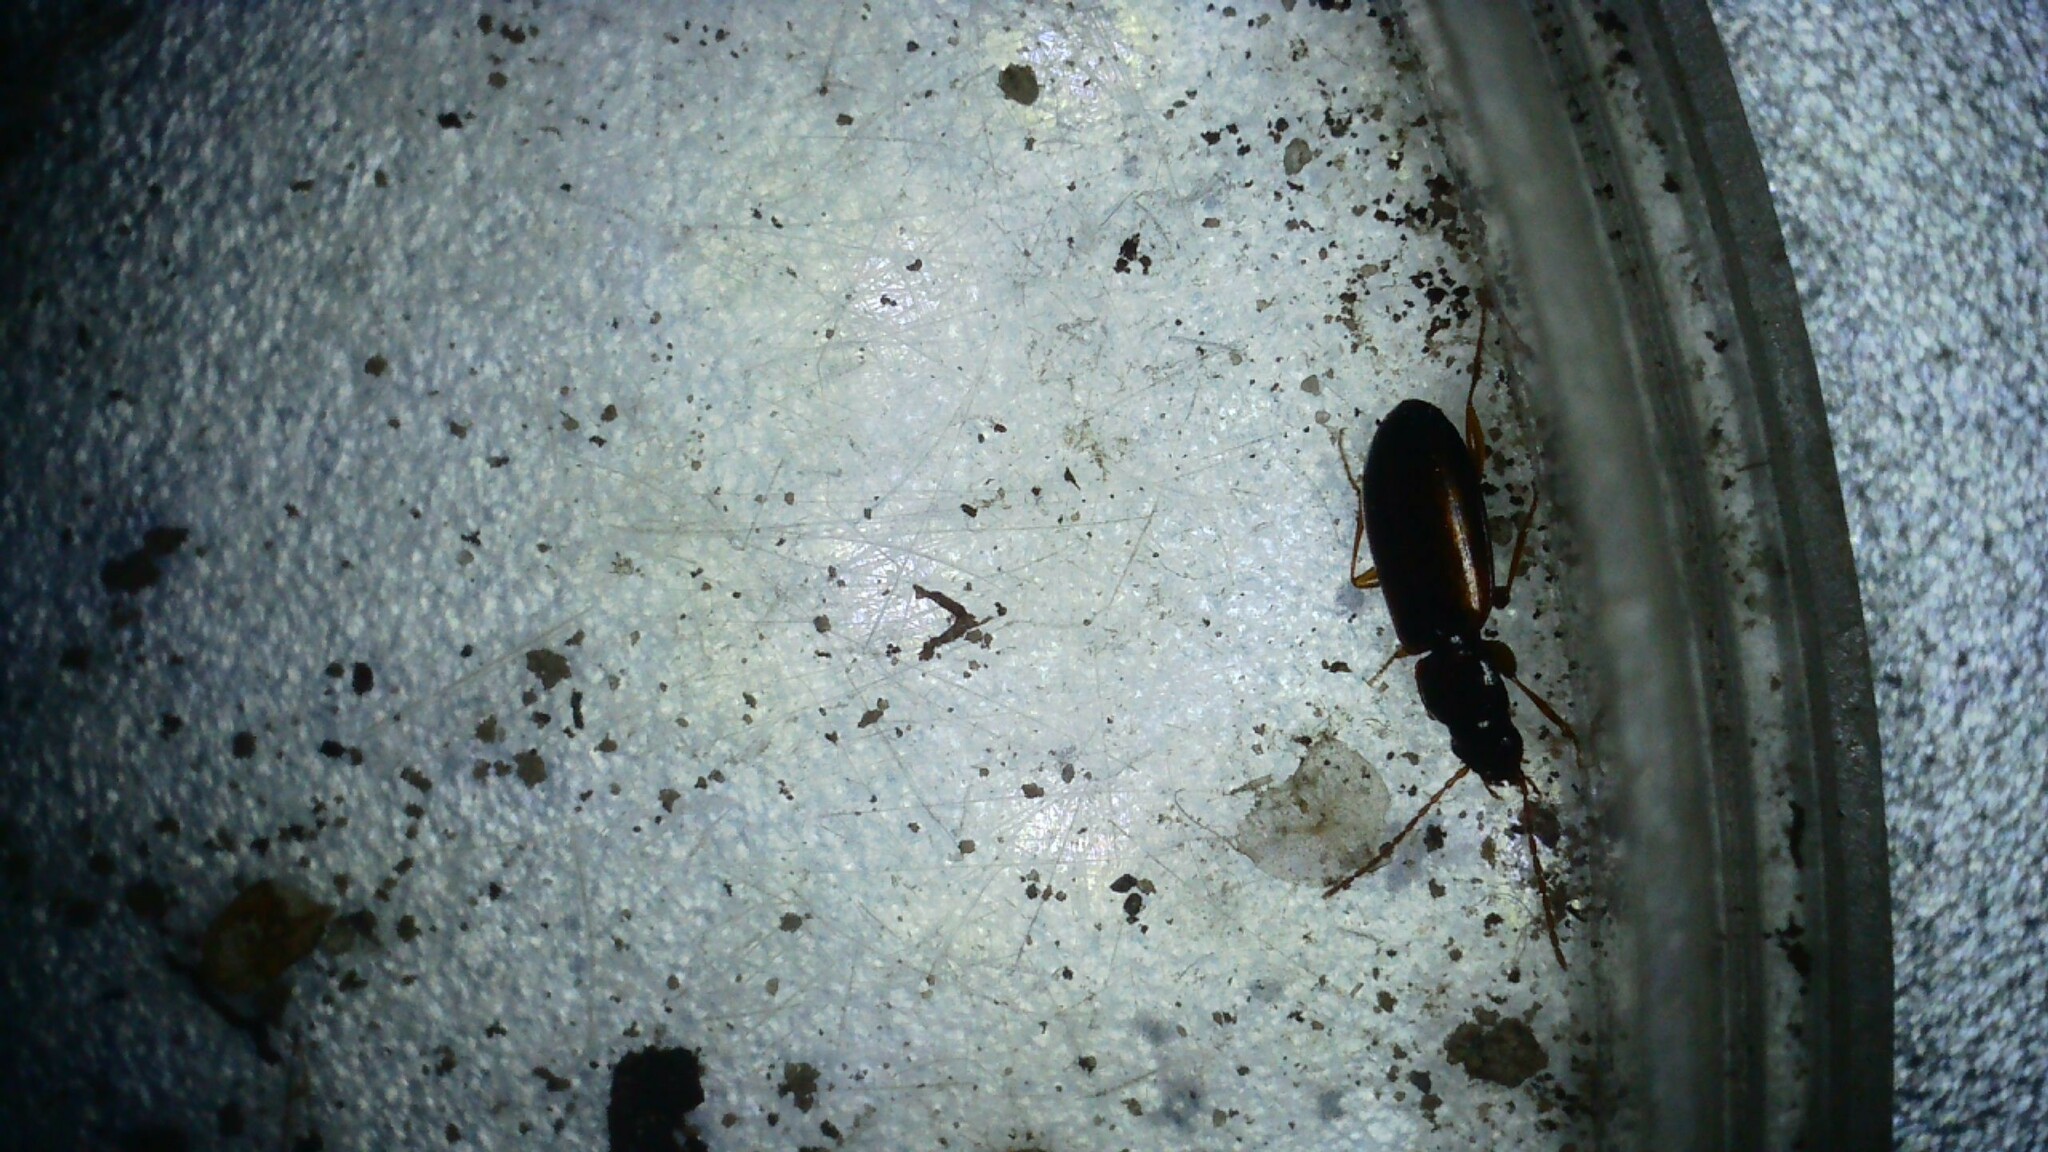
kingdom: Animalia
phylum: Arthropoda
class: Insecta
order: Coleoptera
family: Carabidae
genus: Trechus
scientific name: Trechus quadristriatus
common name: Four-striated riverbank ground beetle
